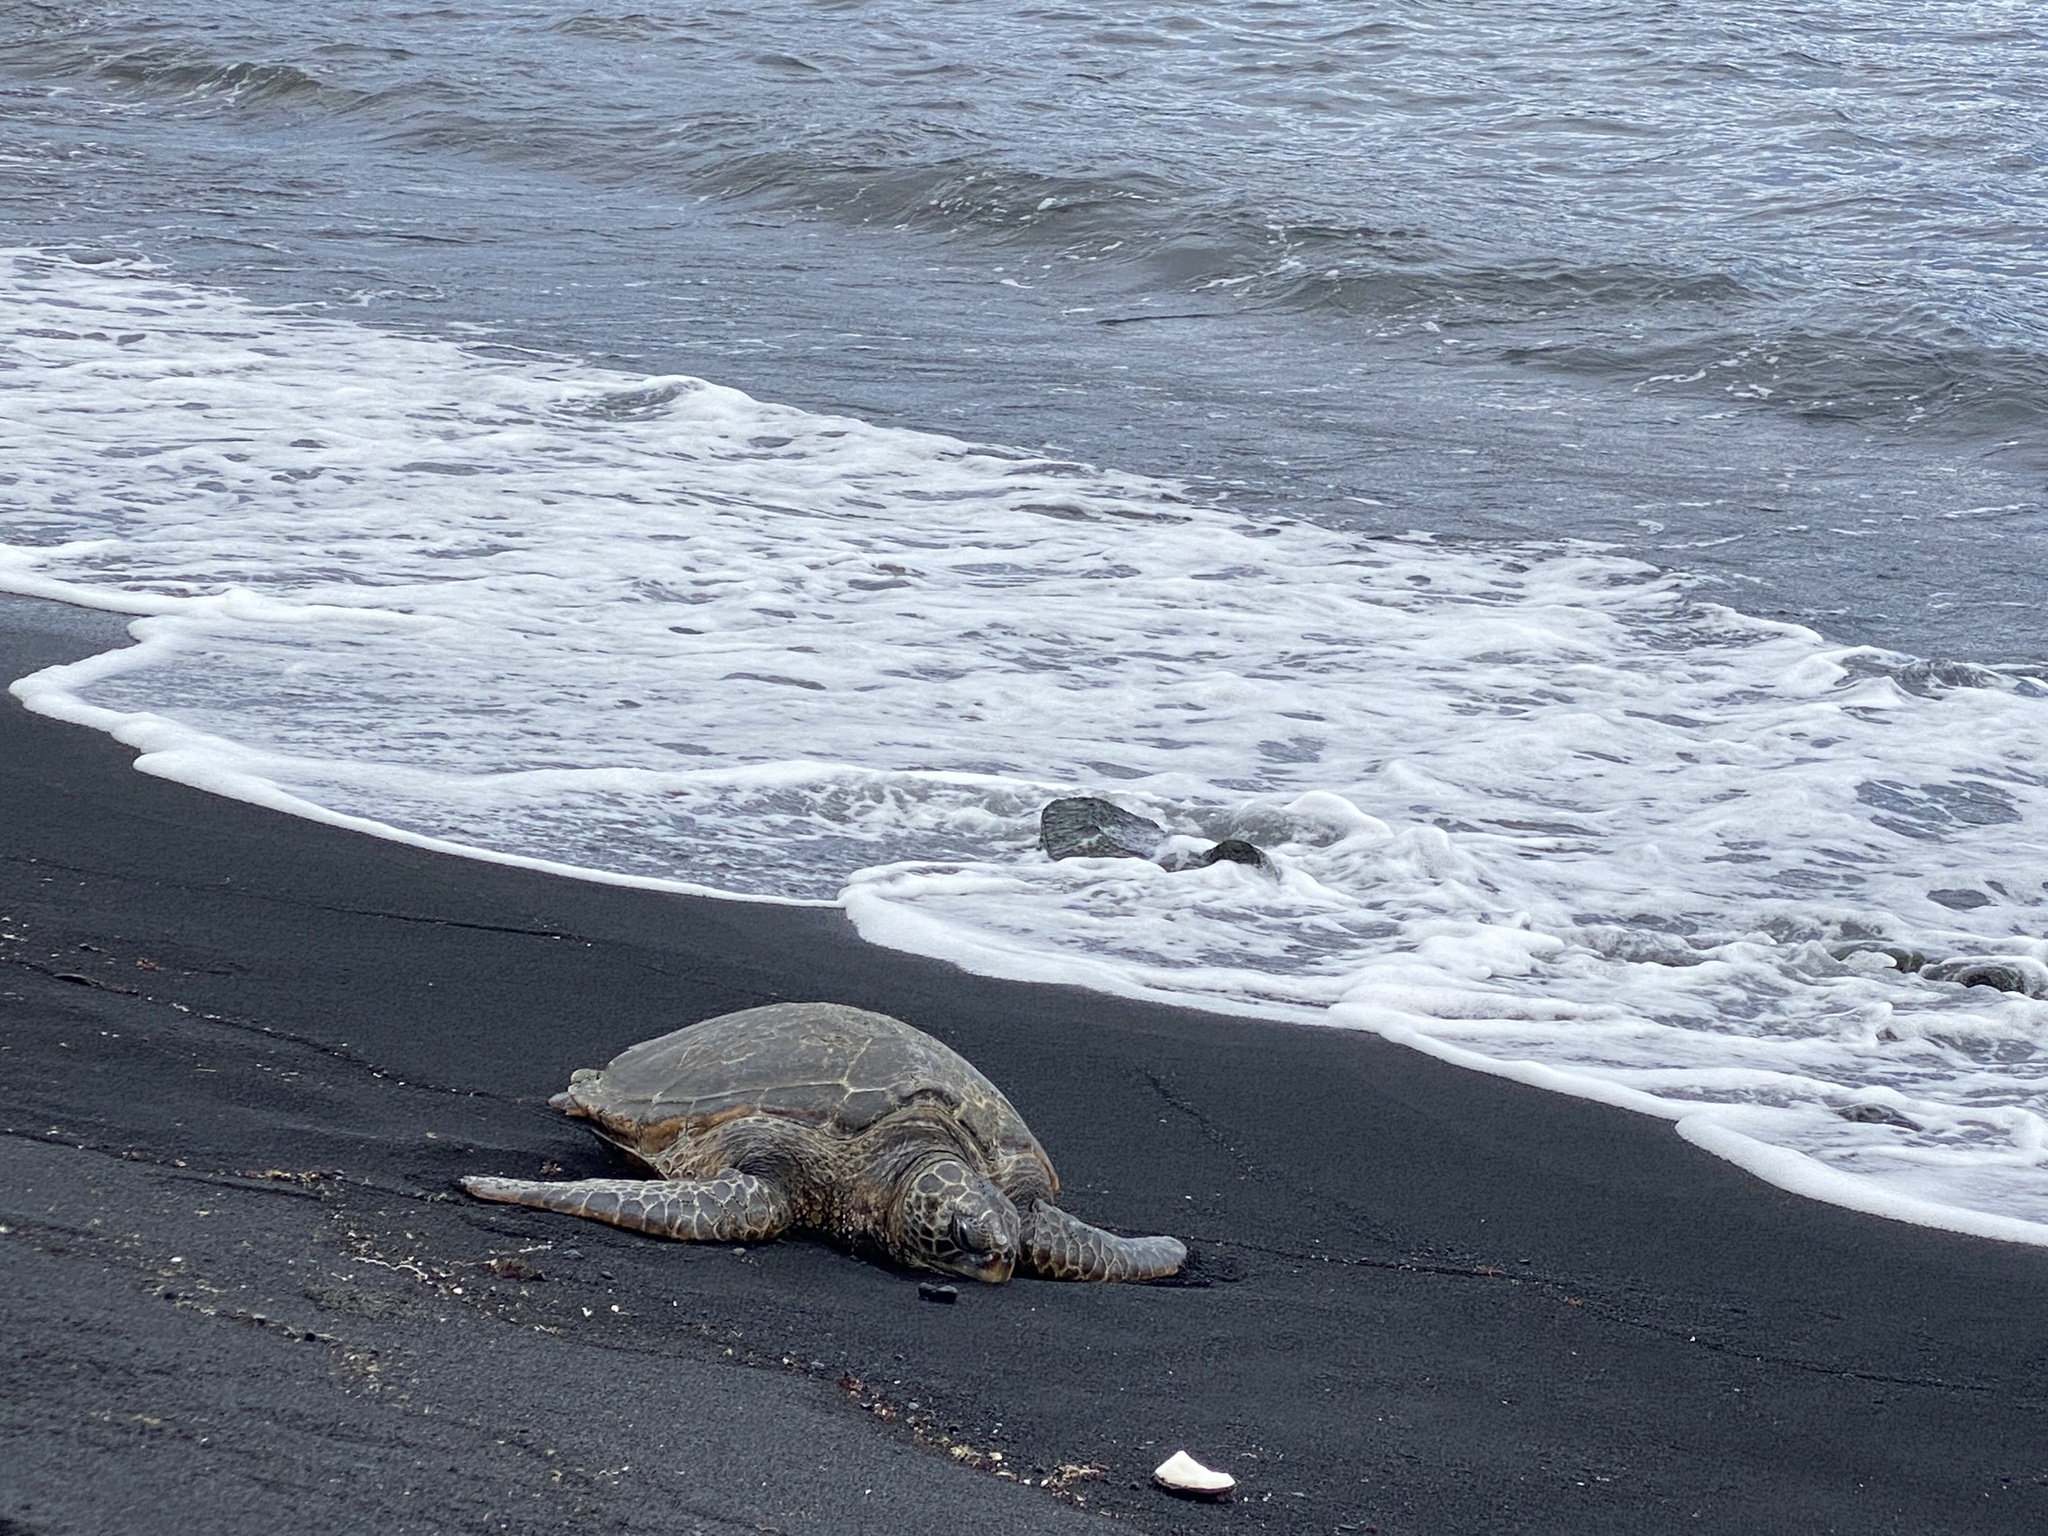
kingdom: Animalia
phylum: Chordata
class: Testudines
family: Cheloniidae
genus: Chelonia
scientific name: Chelonia mydas
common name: Green turtle
